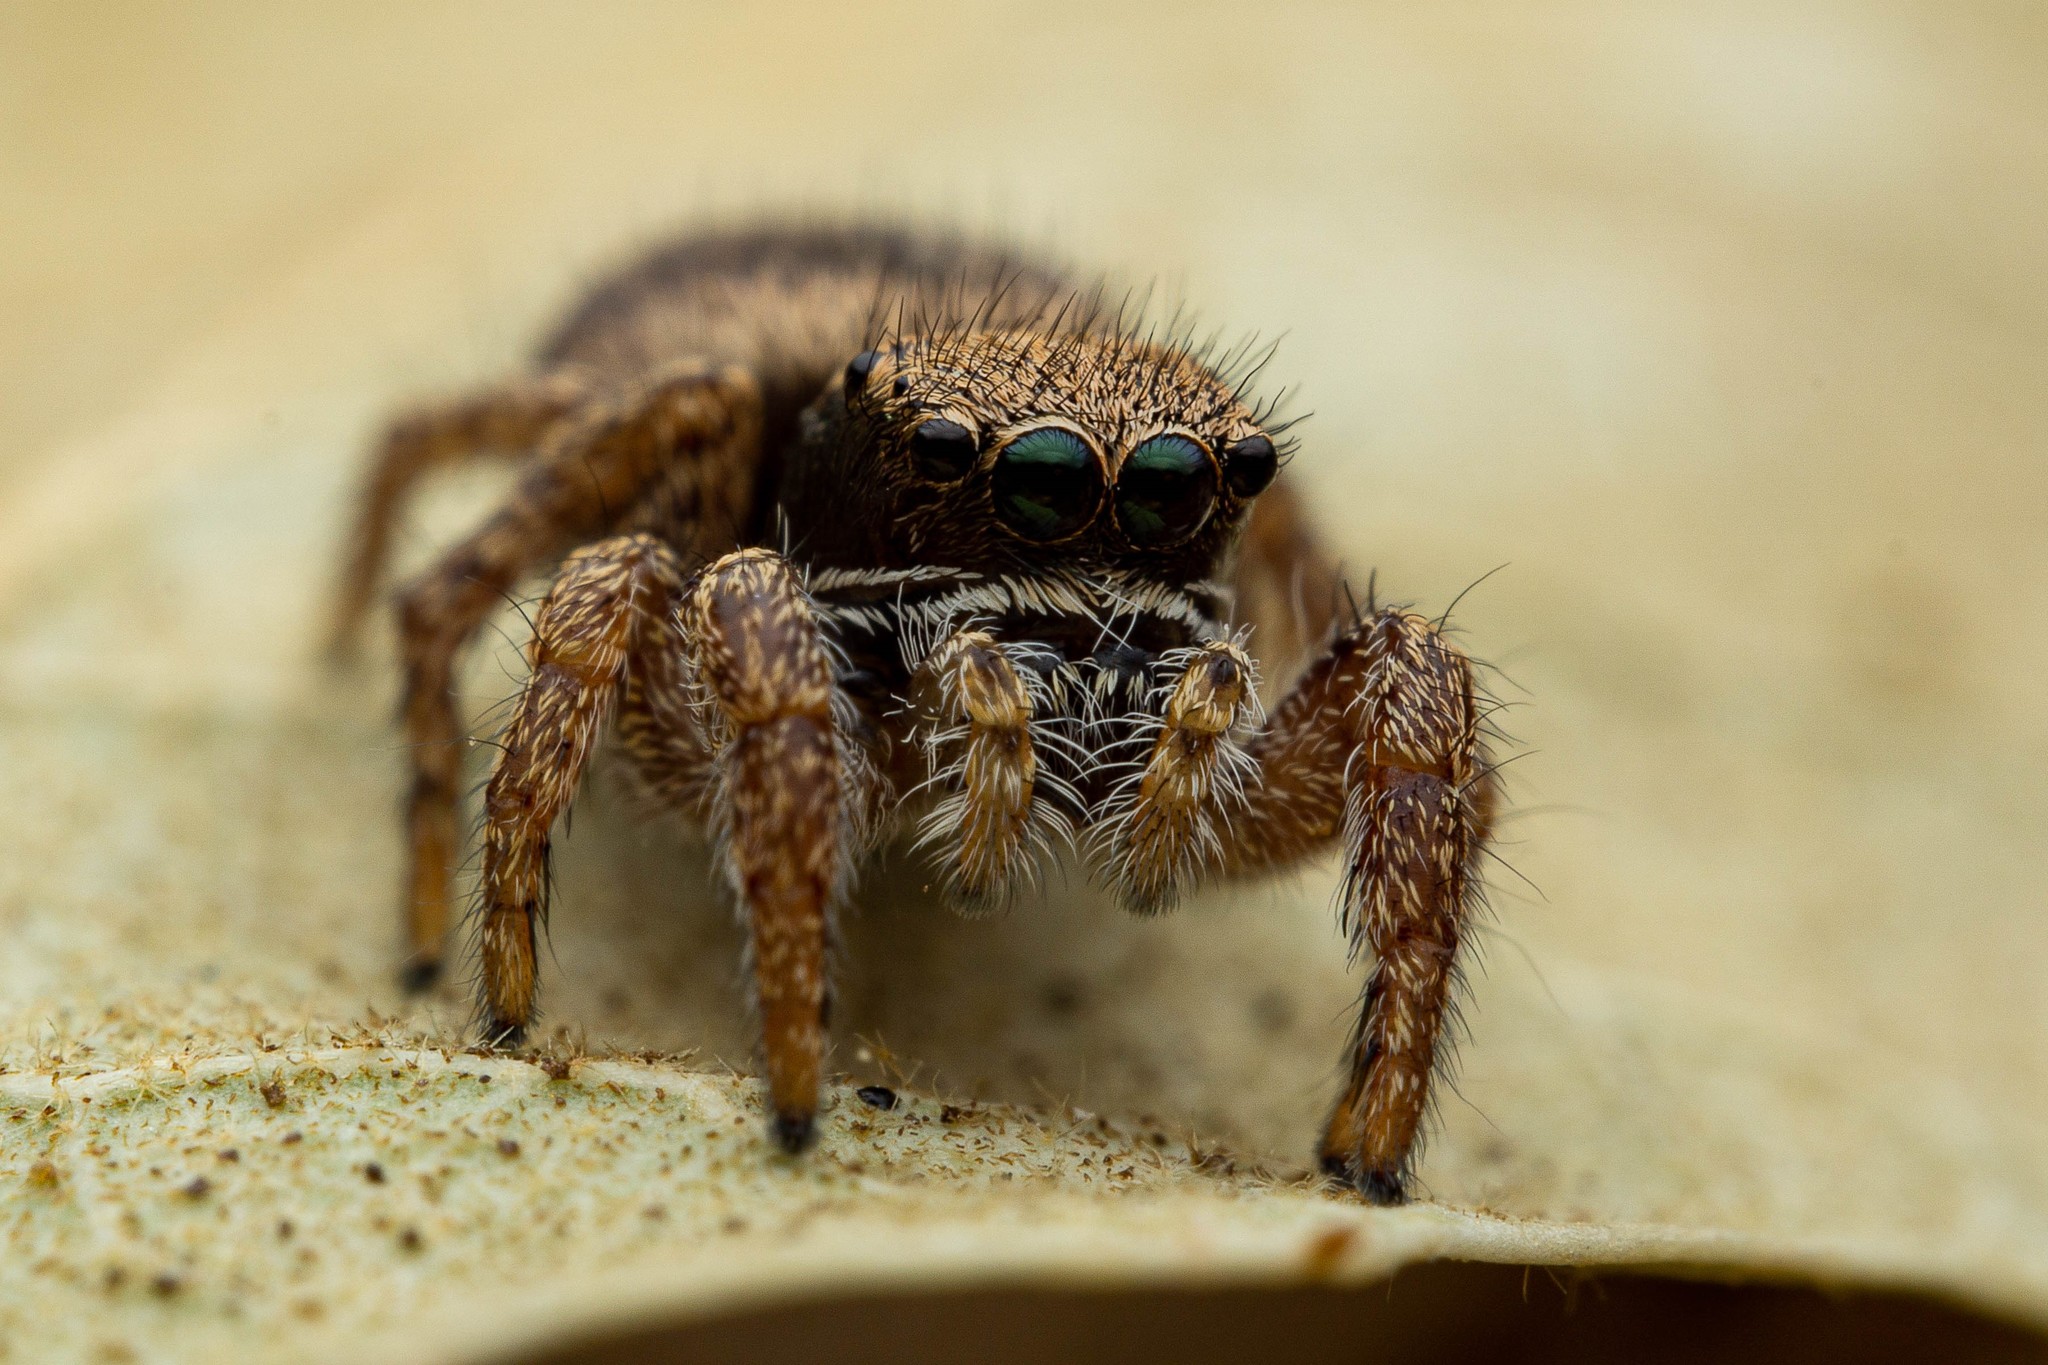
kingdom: Animalia
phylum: Arthropoda
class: Arachnida
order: Araneae
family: Salticidae
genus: Habronattus
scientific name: Habronattus oregonensis
